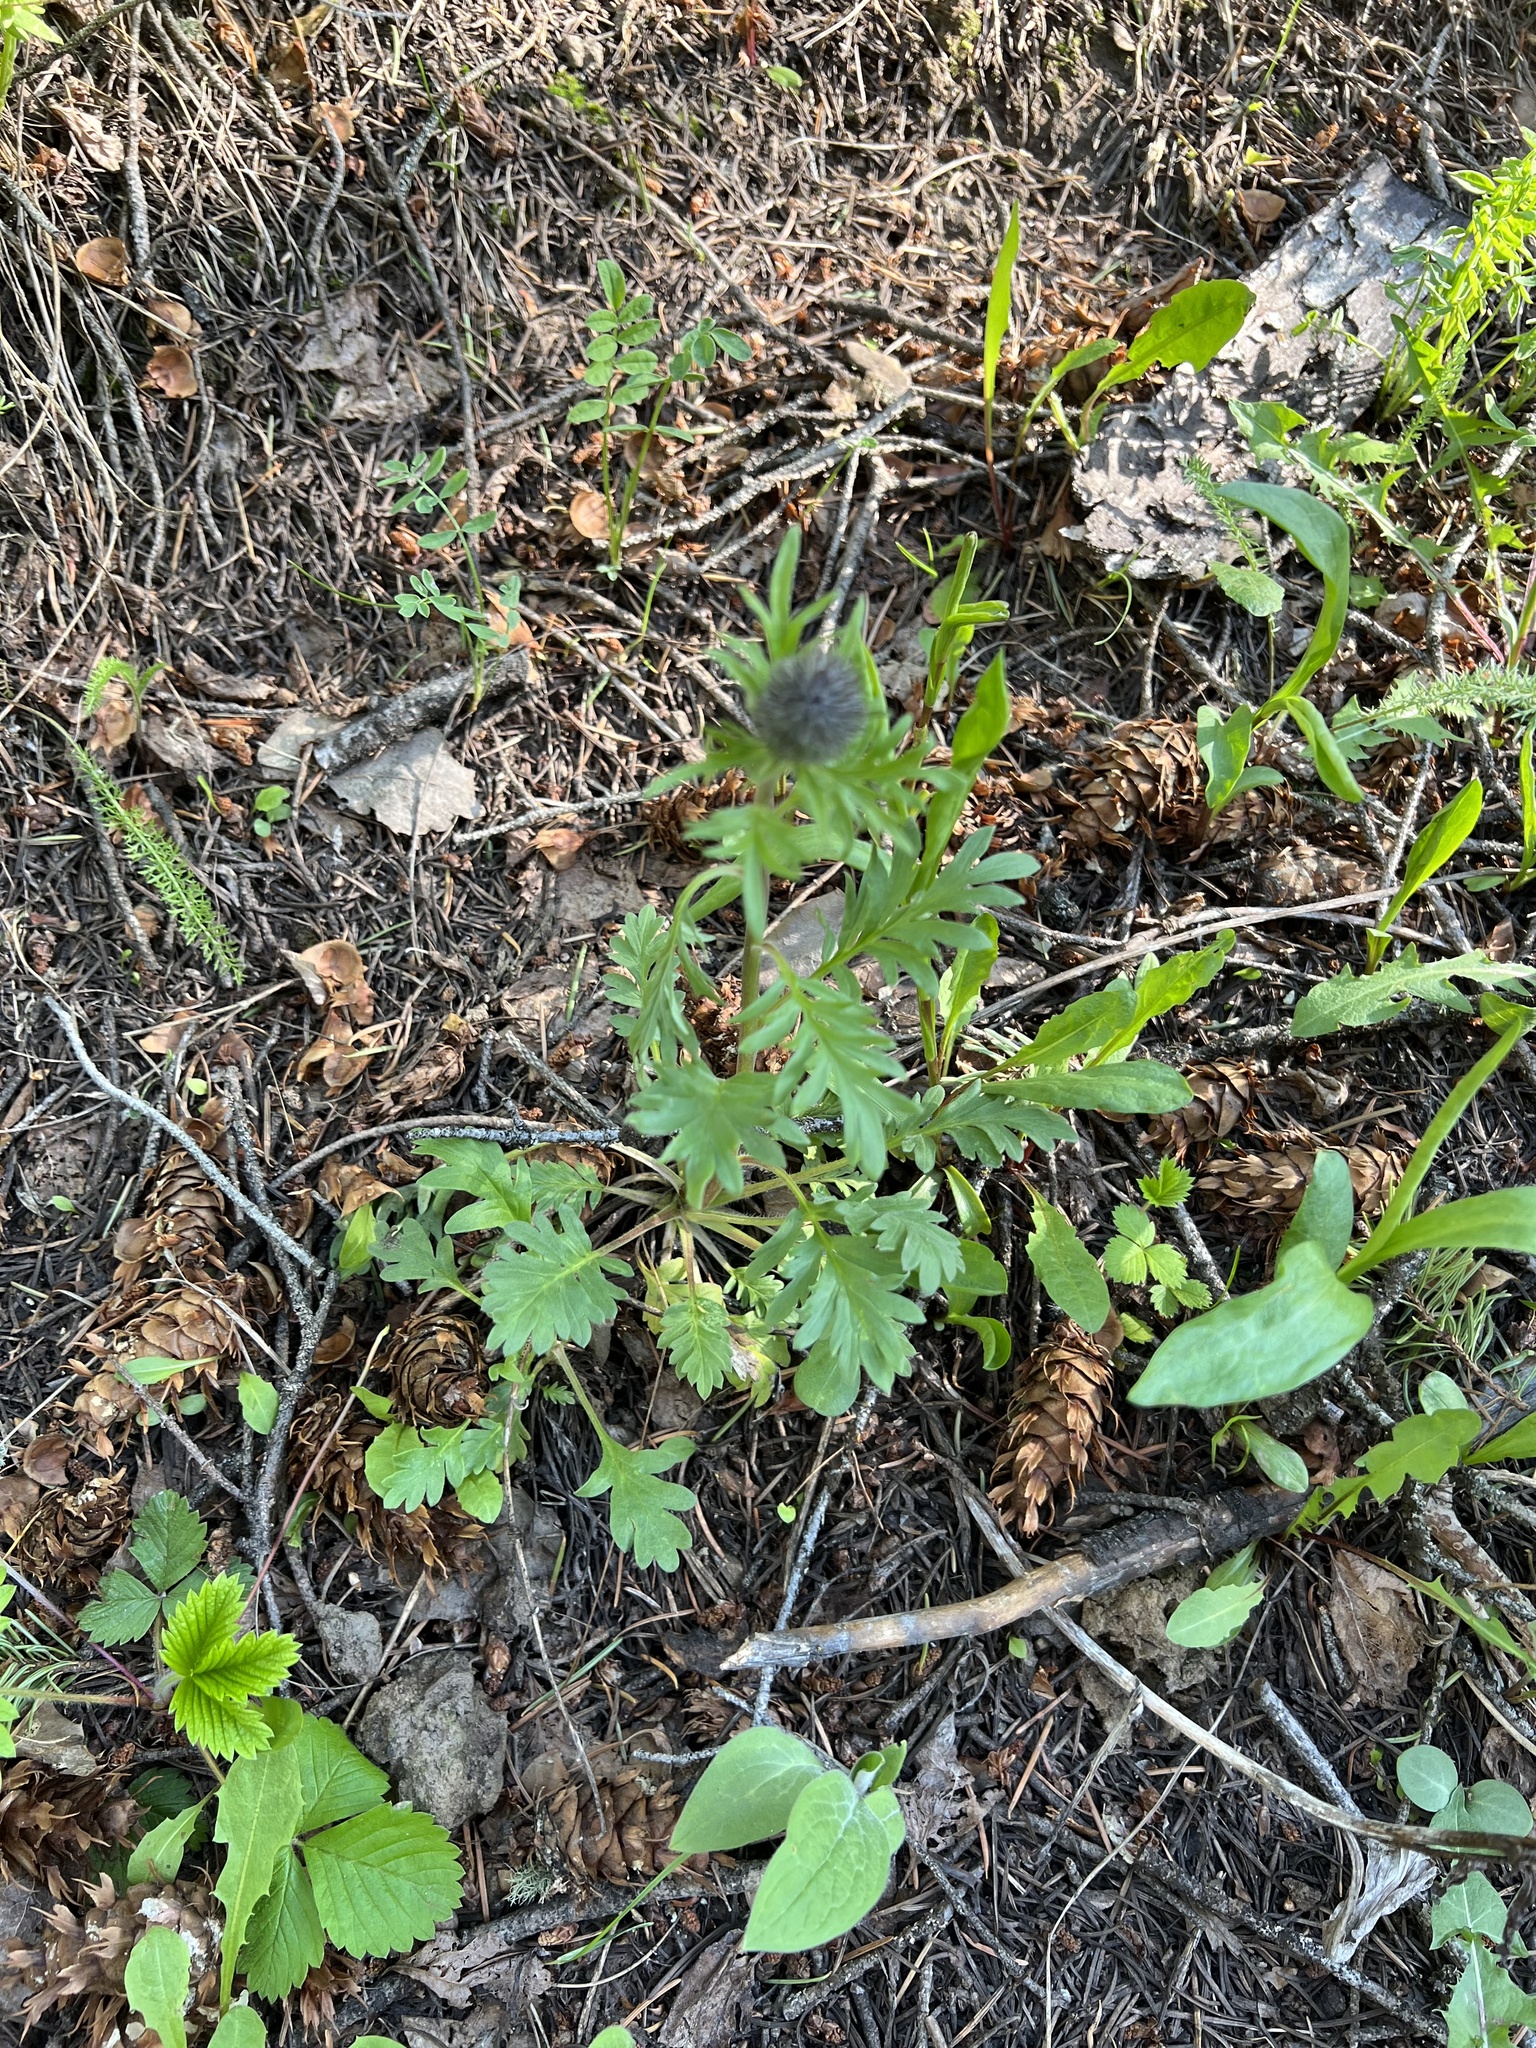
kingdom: Plantae
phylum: Tracheophyta
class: Magnoliopsida
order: Boraginales
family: Hydrophyllaceae
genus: Phacelia
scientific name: Phacelia sericea
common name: Silky phacelia
